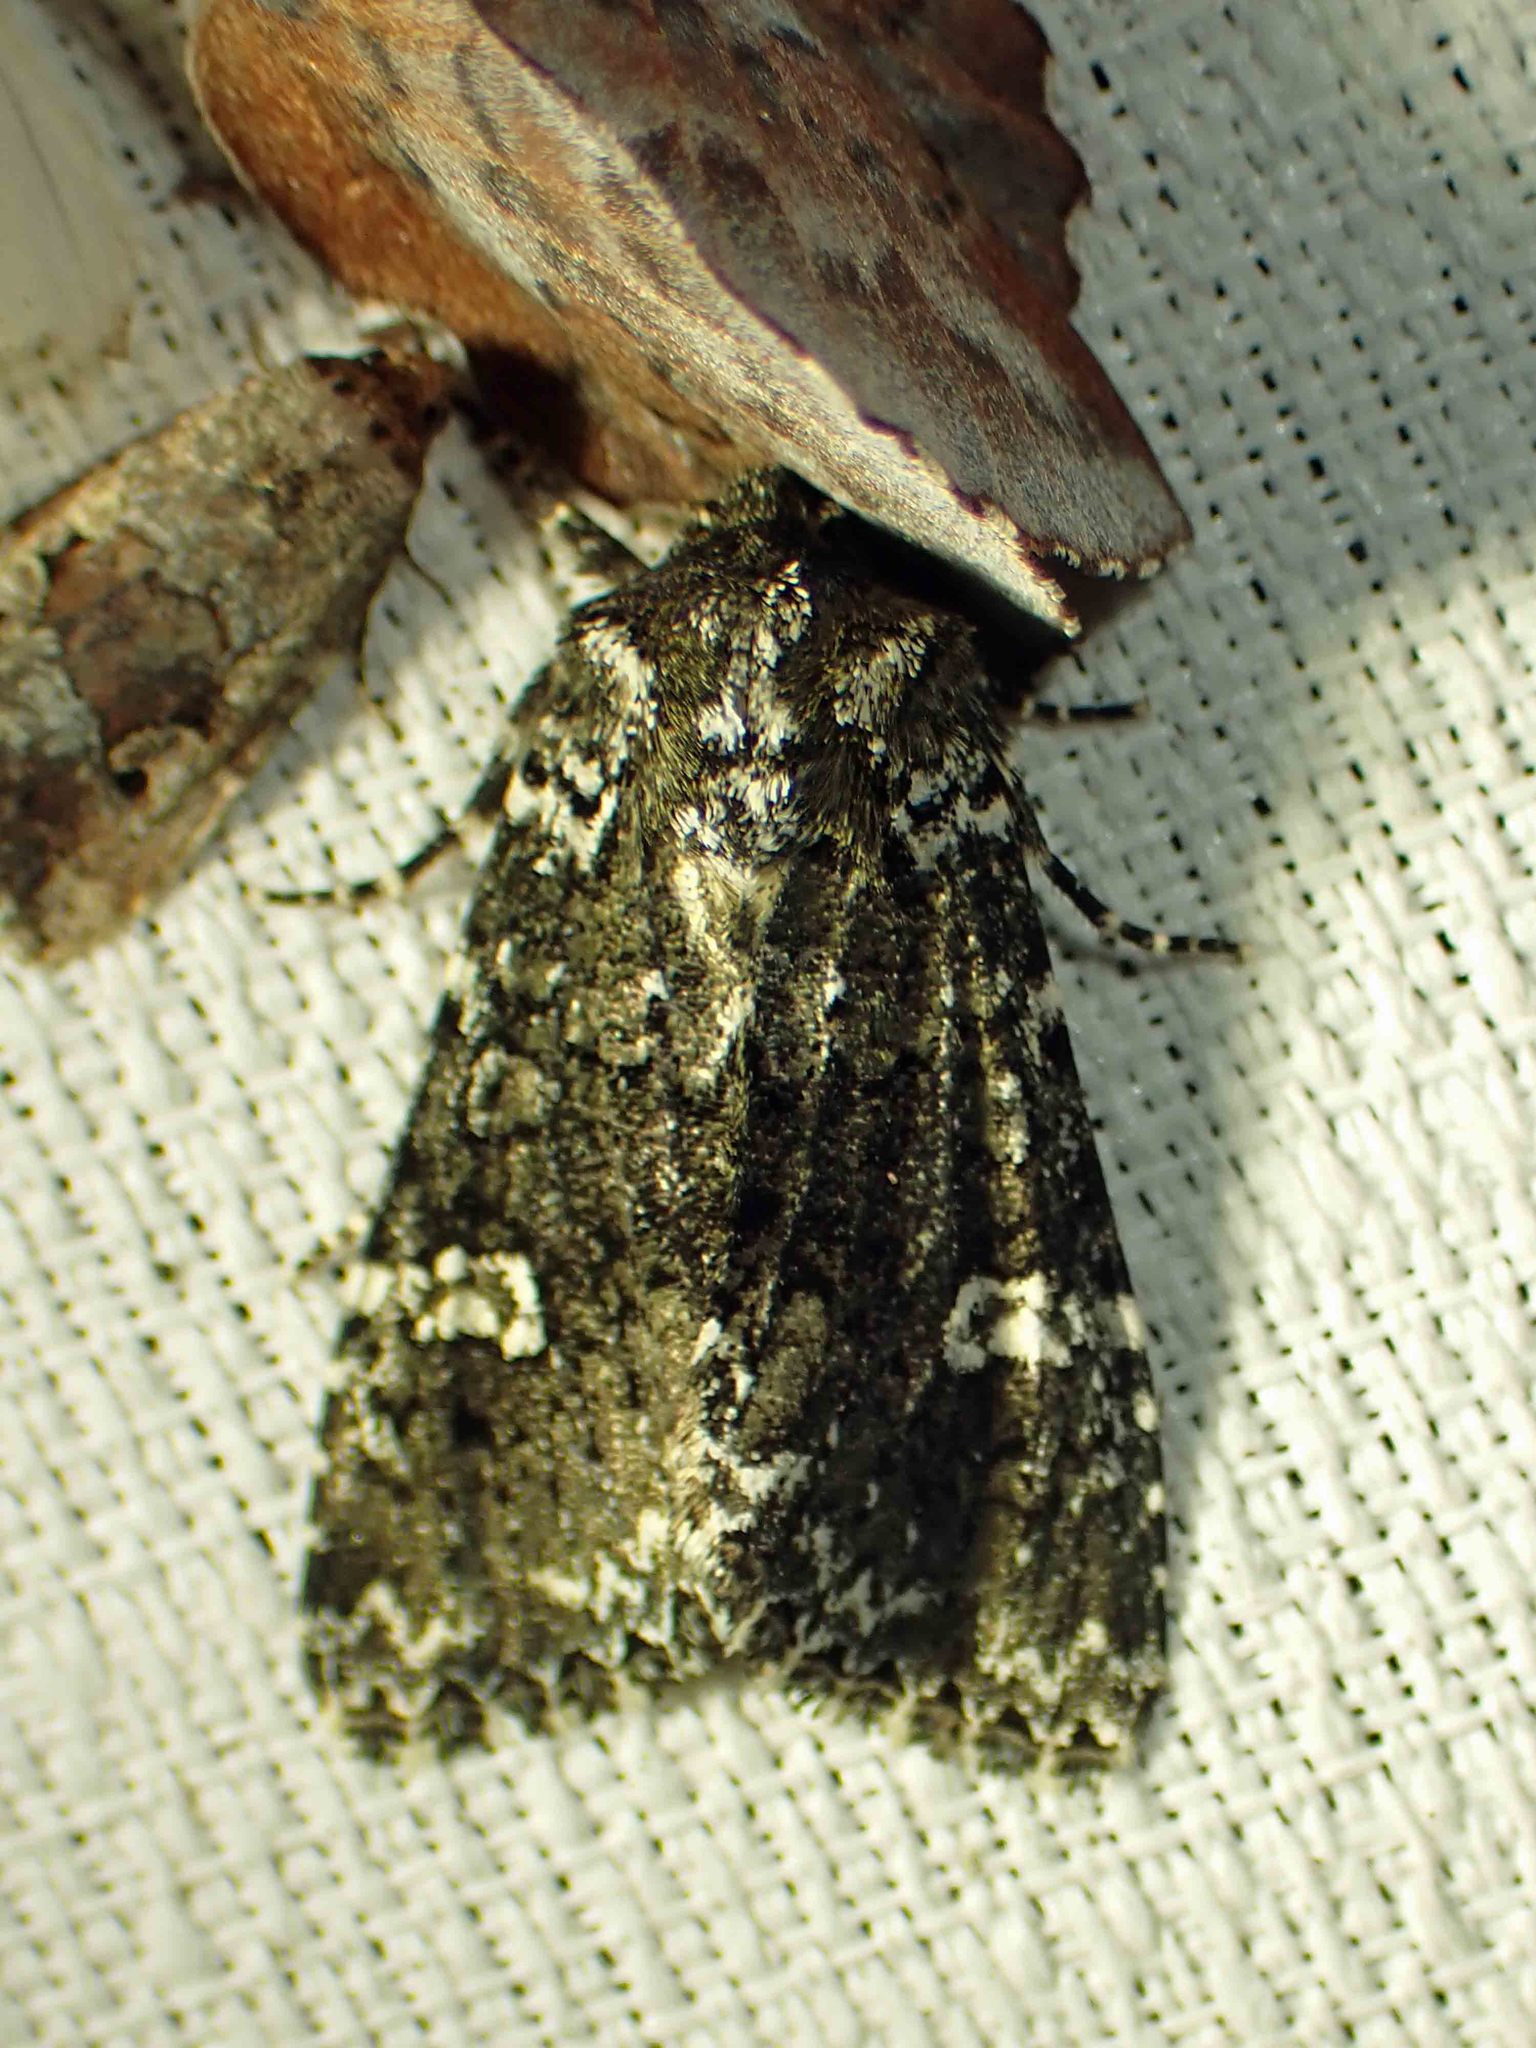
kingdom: Animalia
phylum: Arthropoda
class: Insecta
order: Lepidoptera
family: Noctuidae
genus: Melanchra
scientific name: Melanchra adjuncta
